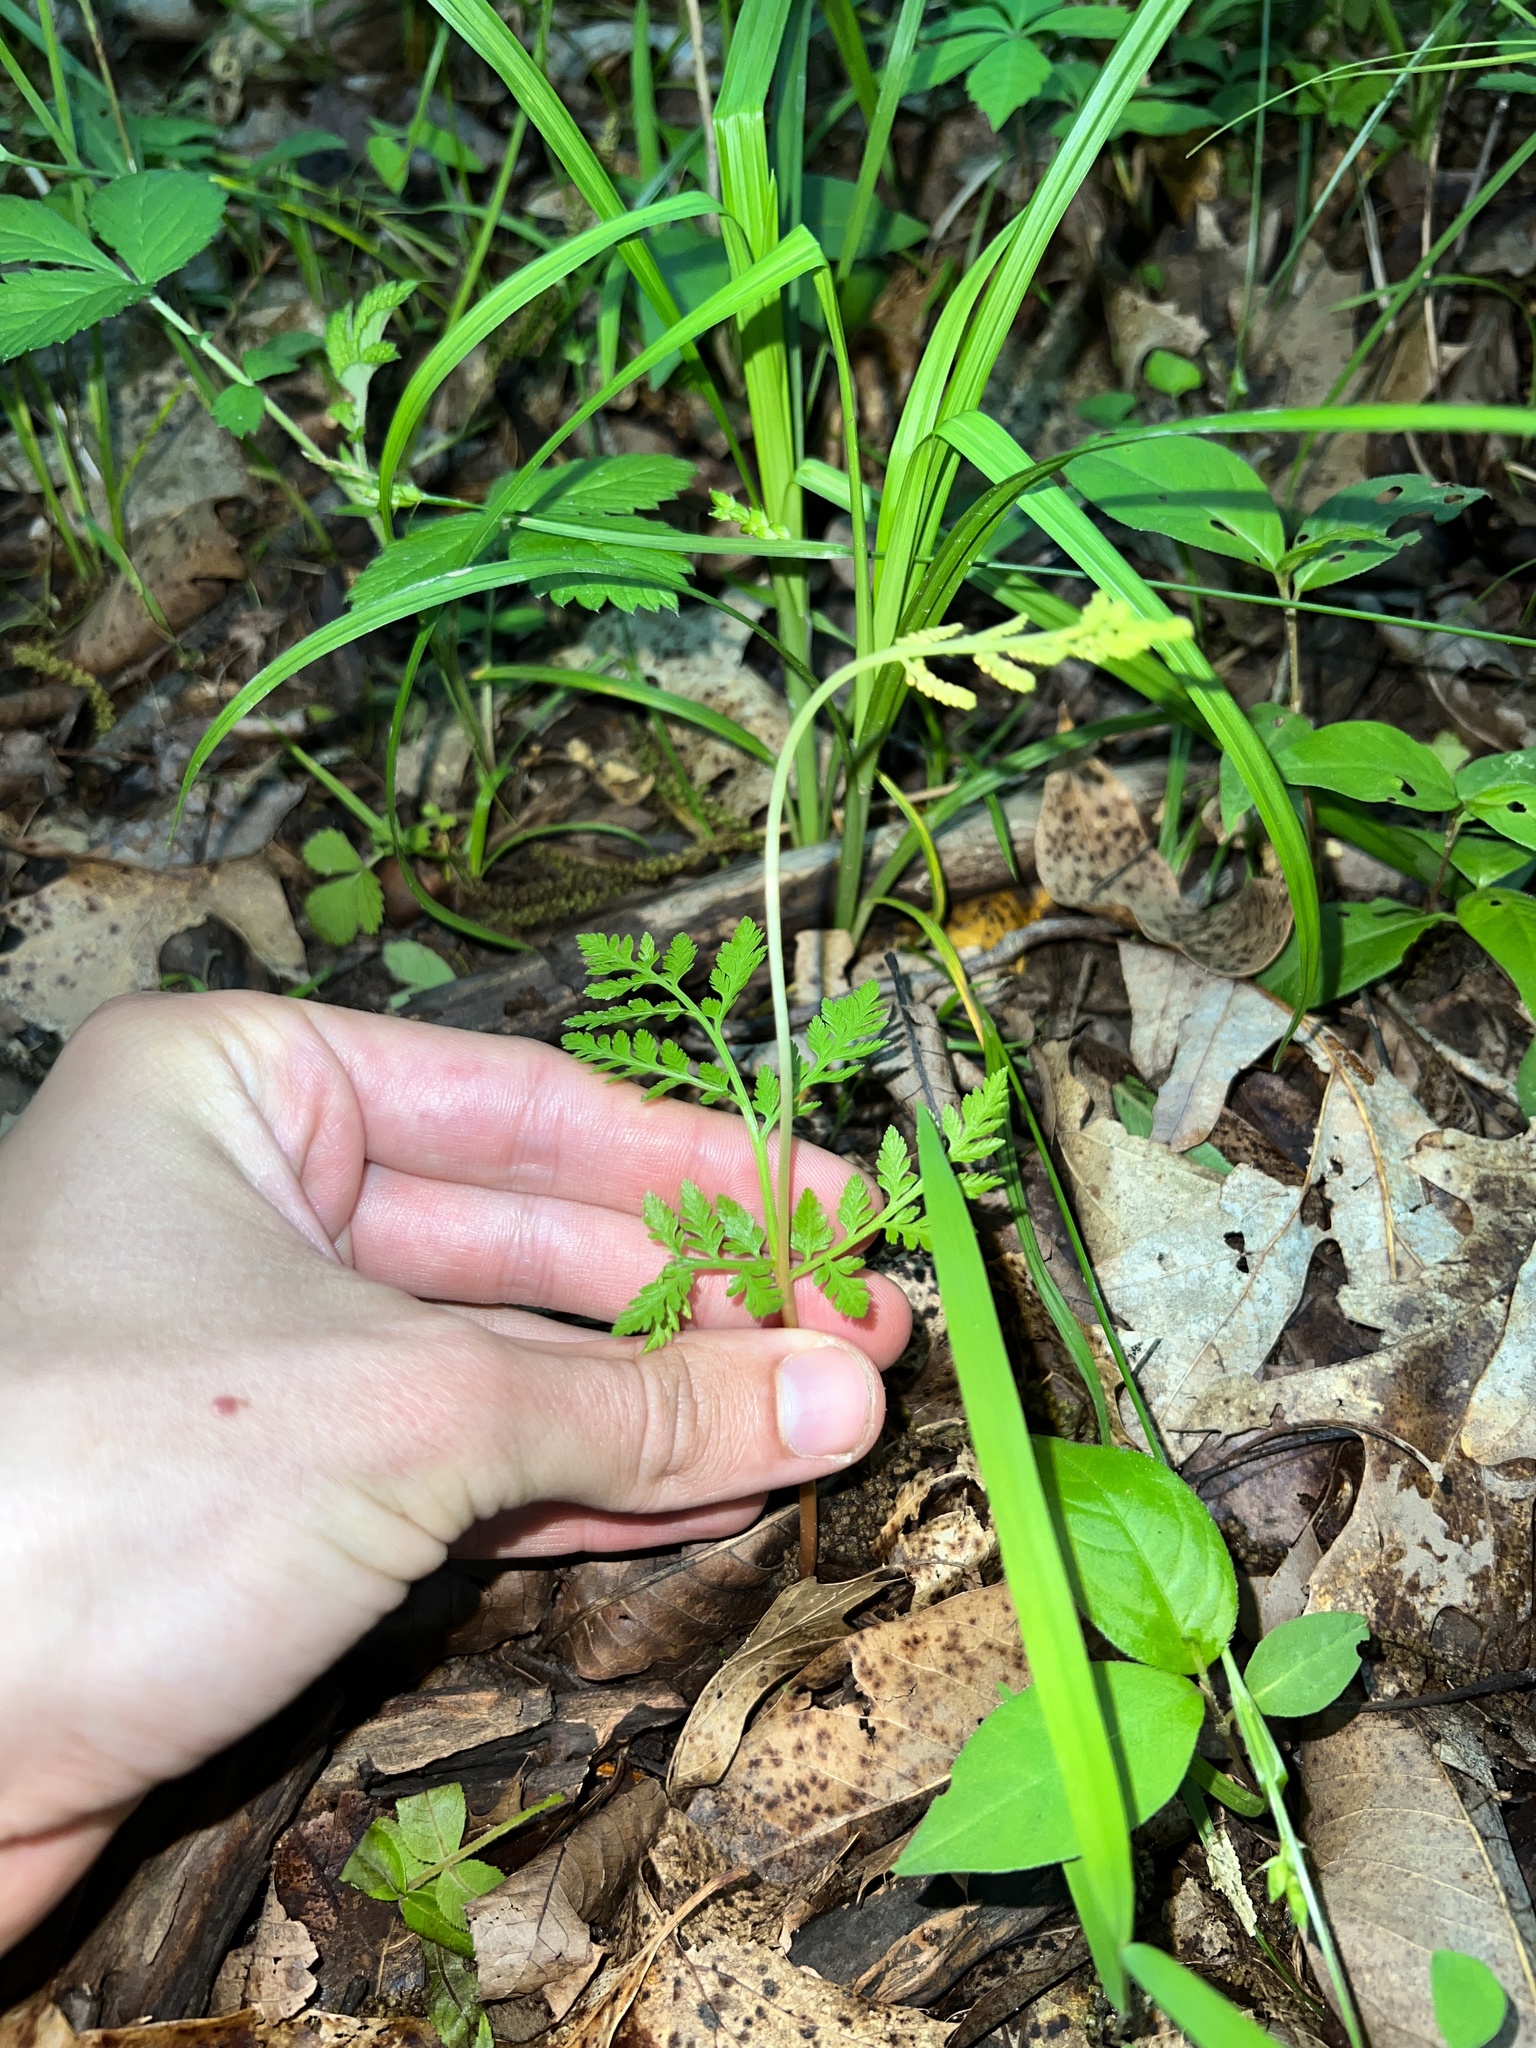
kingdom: Plantae
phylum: Tracheophyta
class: Polypodiopsida
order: Ophioglossales
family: Ophioglossaceae
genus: Botrypus
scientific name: Botrypus virginianus
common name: Common grapefern
